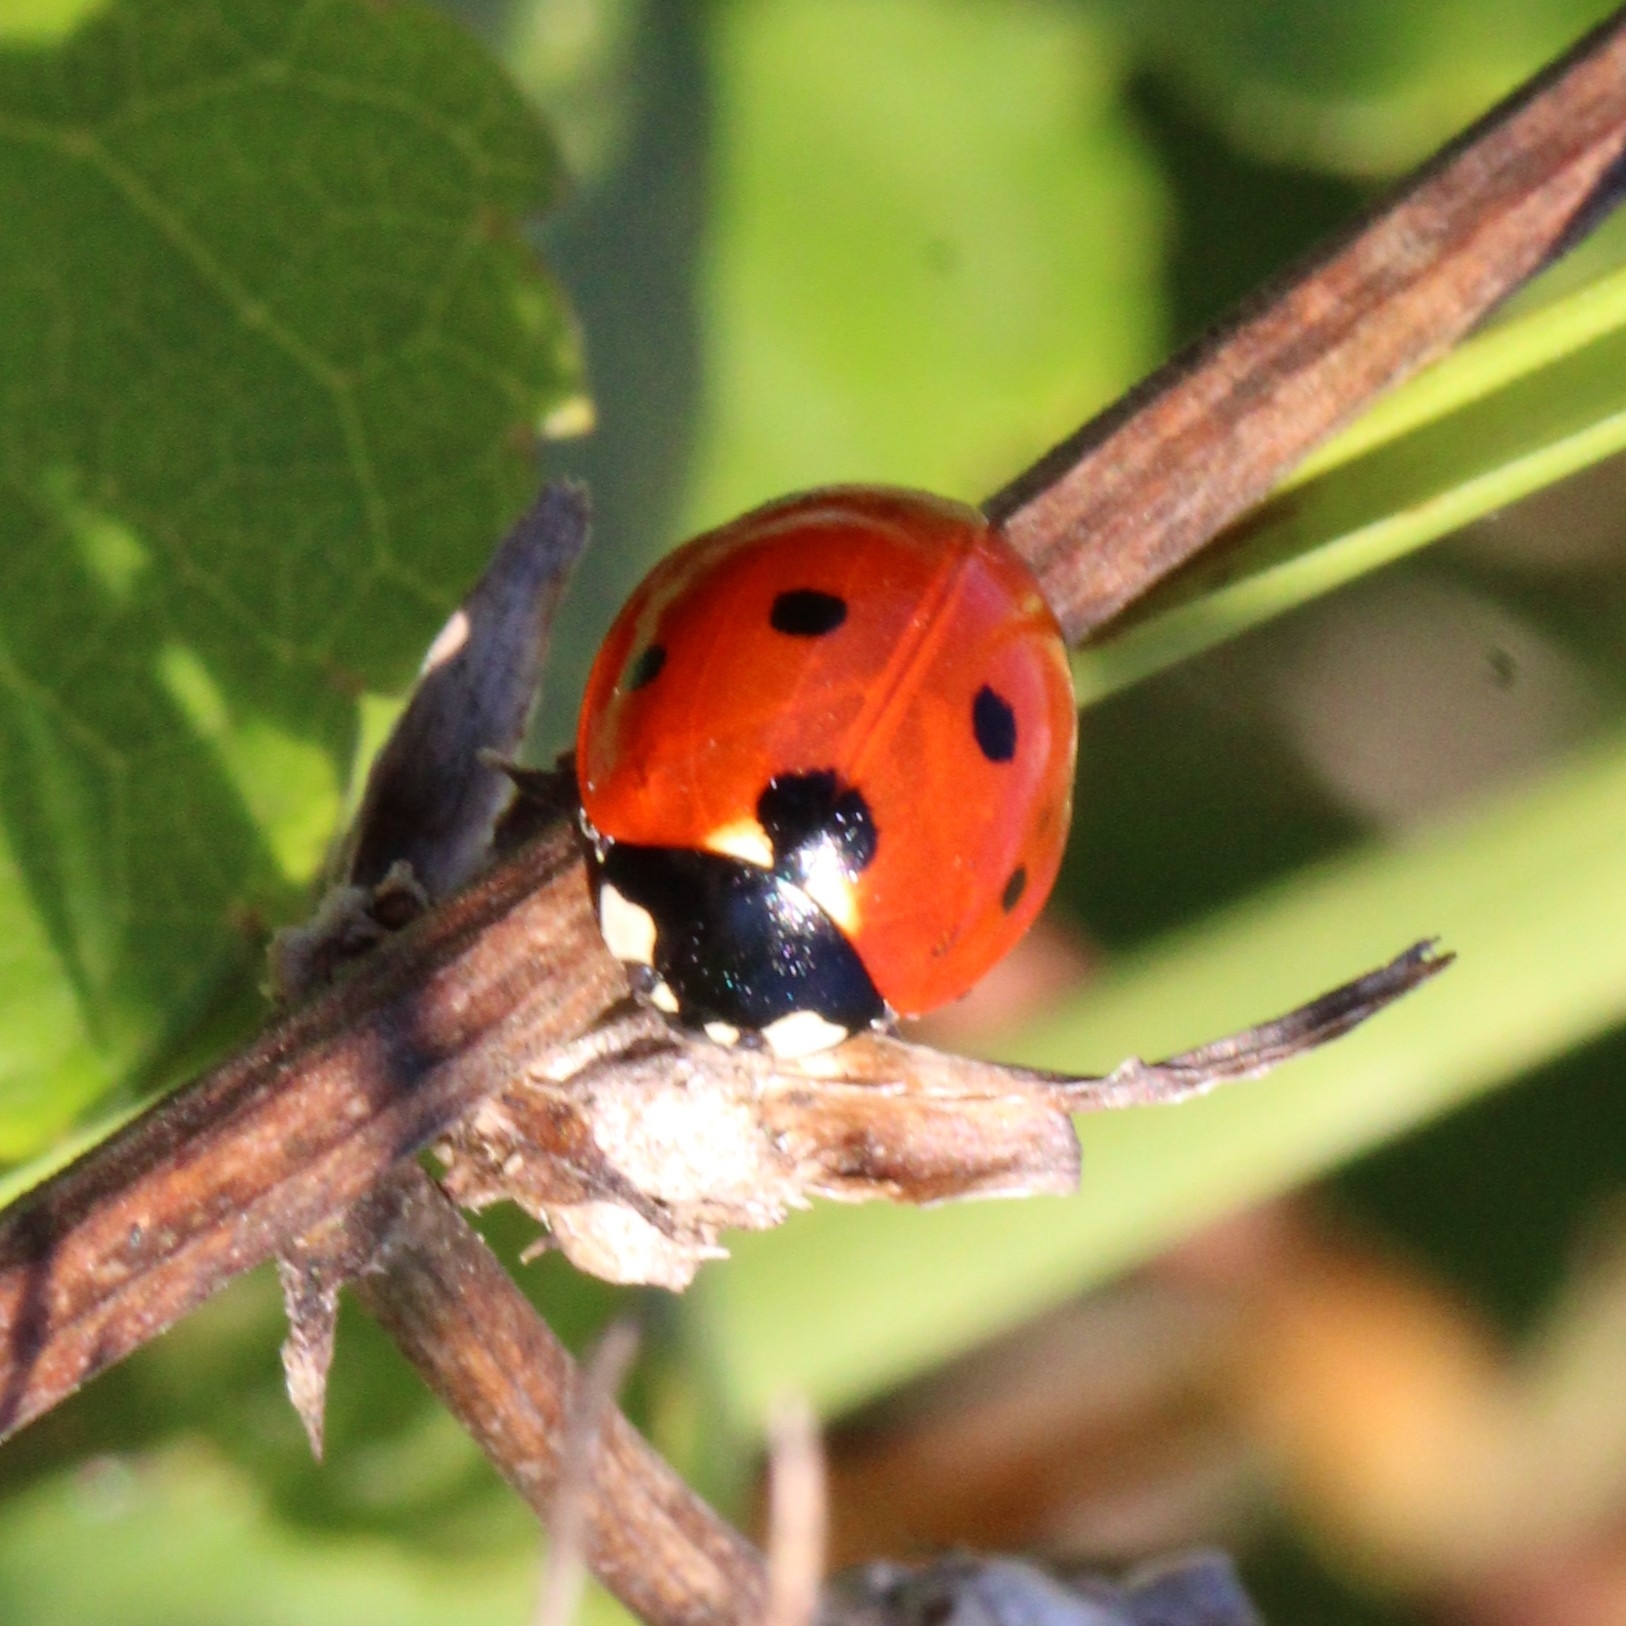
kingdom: Animalia
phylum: Arthropoda
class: Insecta
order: Coleoptera
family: Coccinellidae
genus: Coccinella
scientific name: Coccinella septempunctata
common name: Sevenspotted lady beetle
